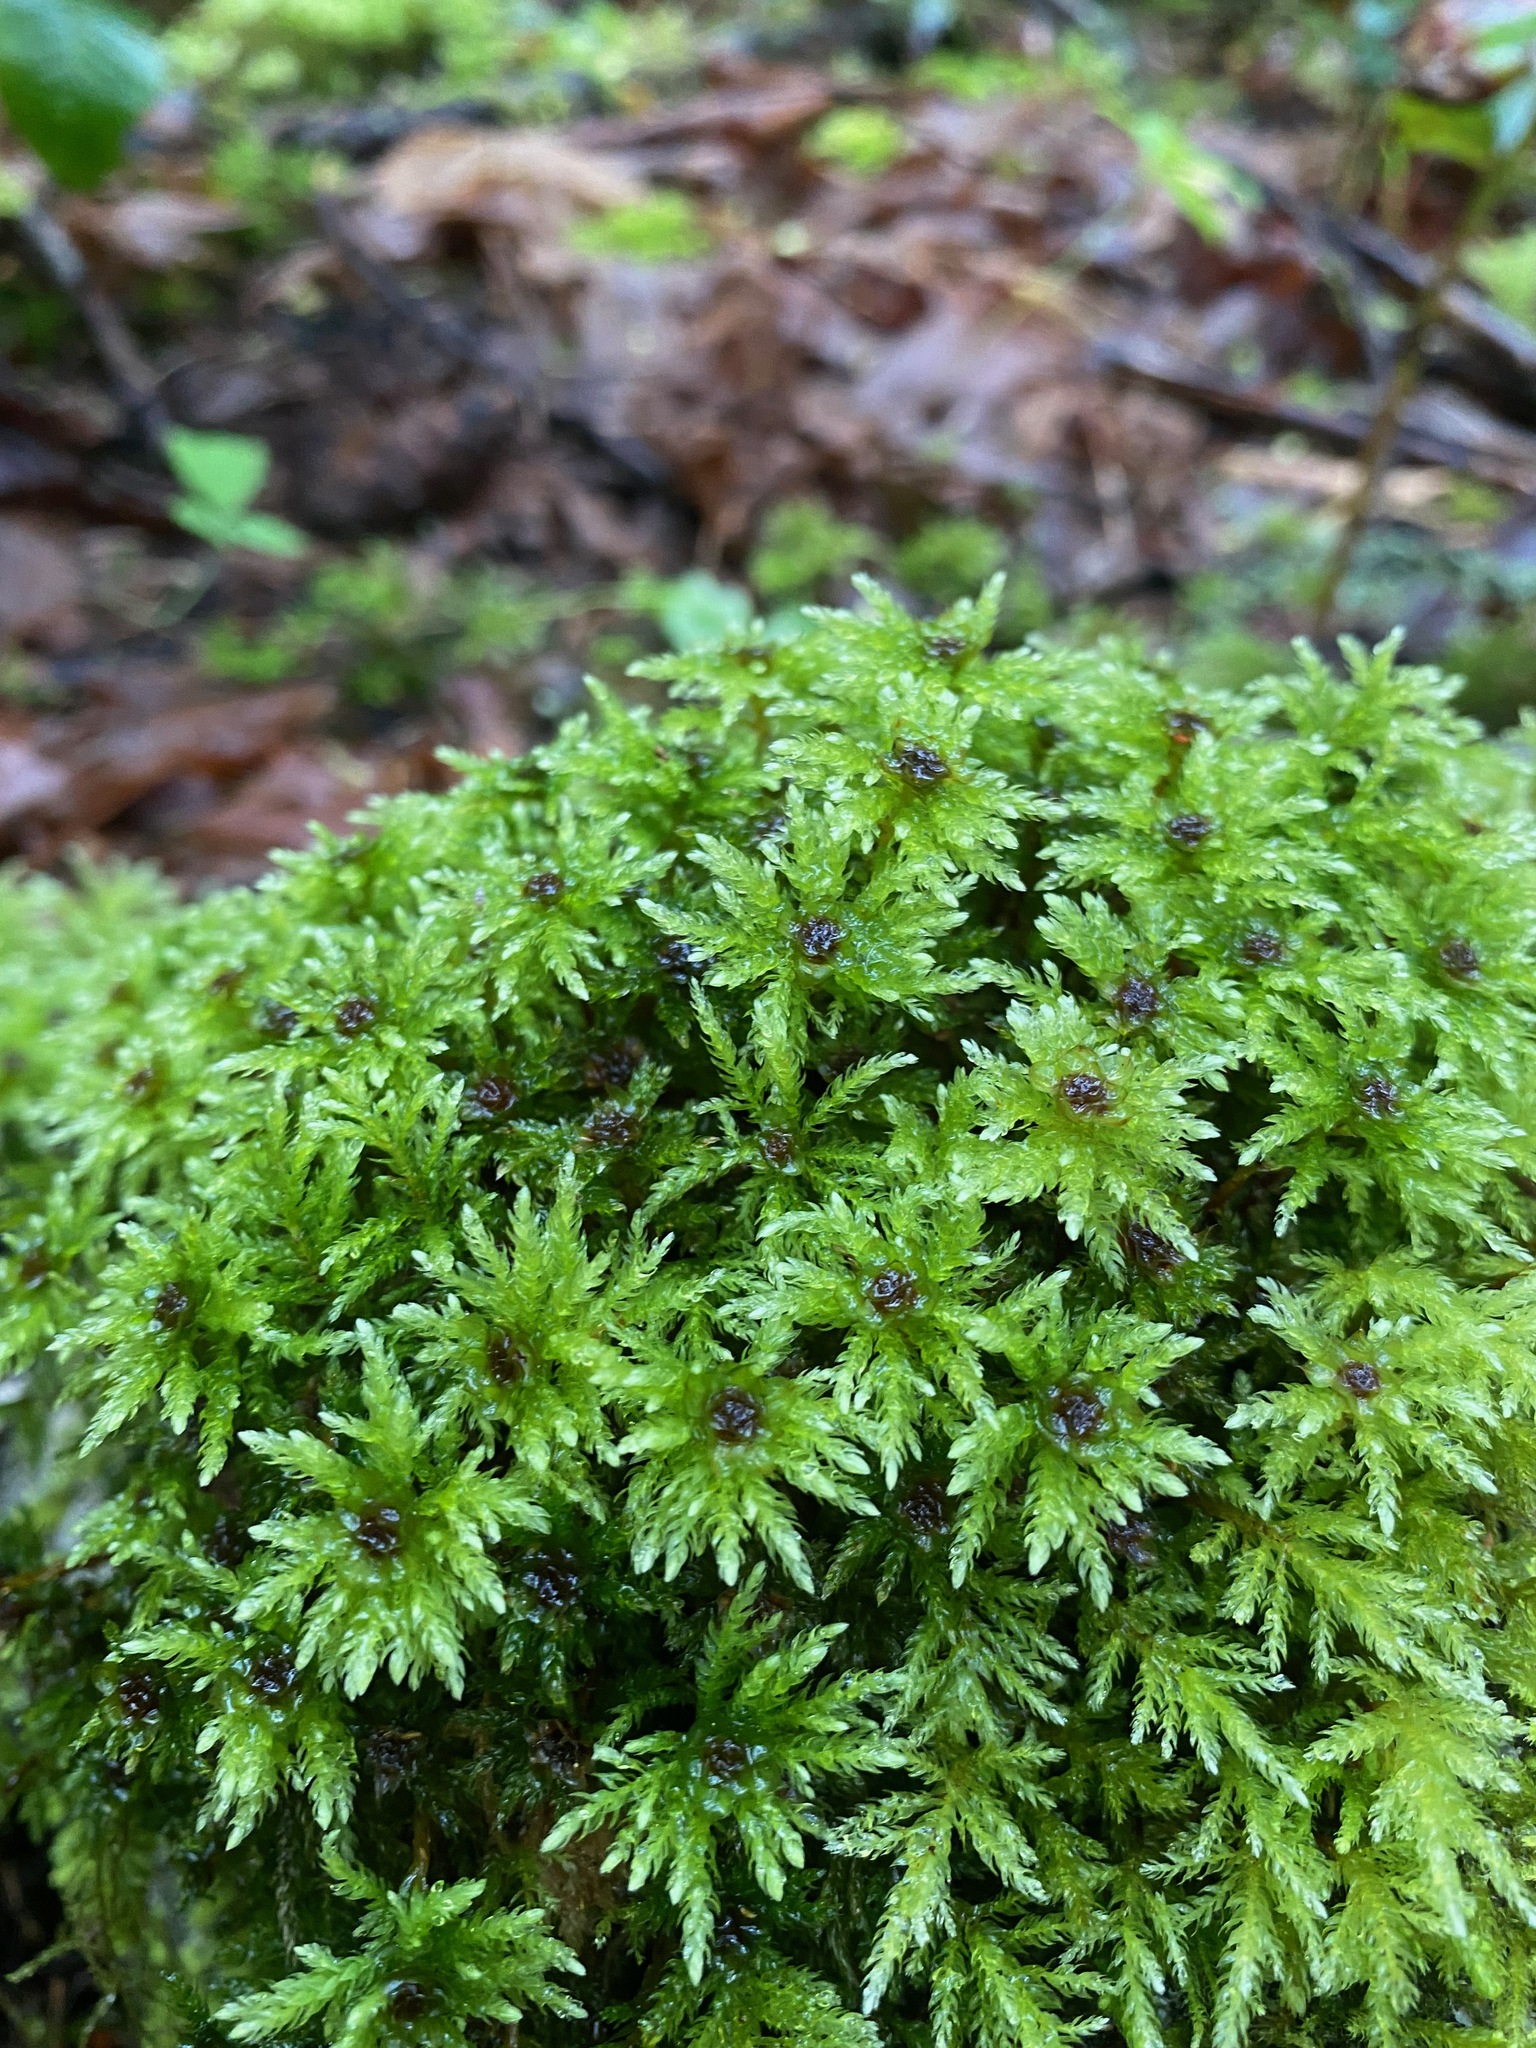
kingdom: Plantae
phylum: Bryophyta
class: Bryopsida
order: Bryales
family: Mniaceae
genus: Leucolepis
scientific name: Leucolepis acanthoneura
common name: Leucolepis umbrella moss
